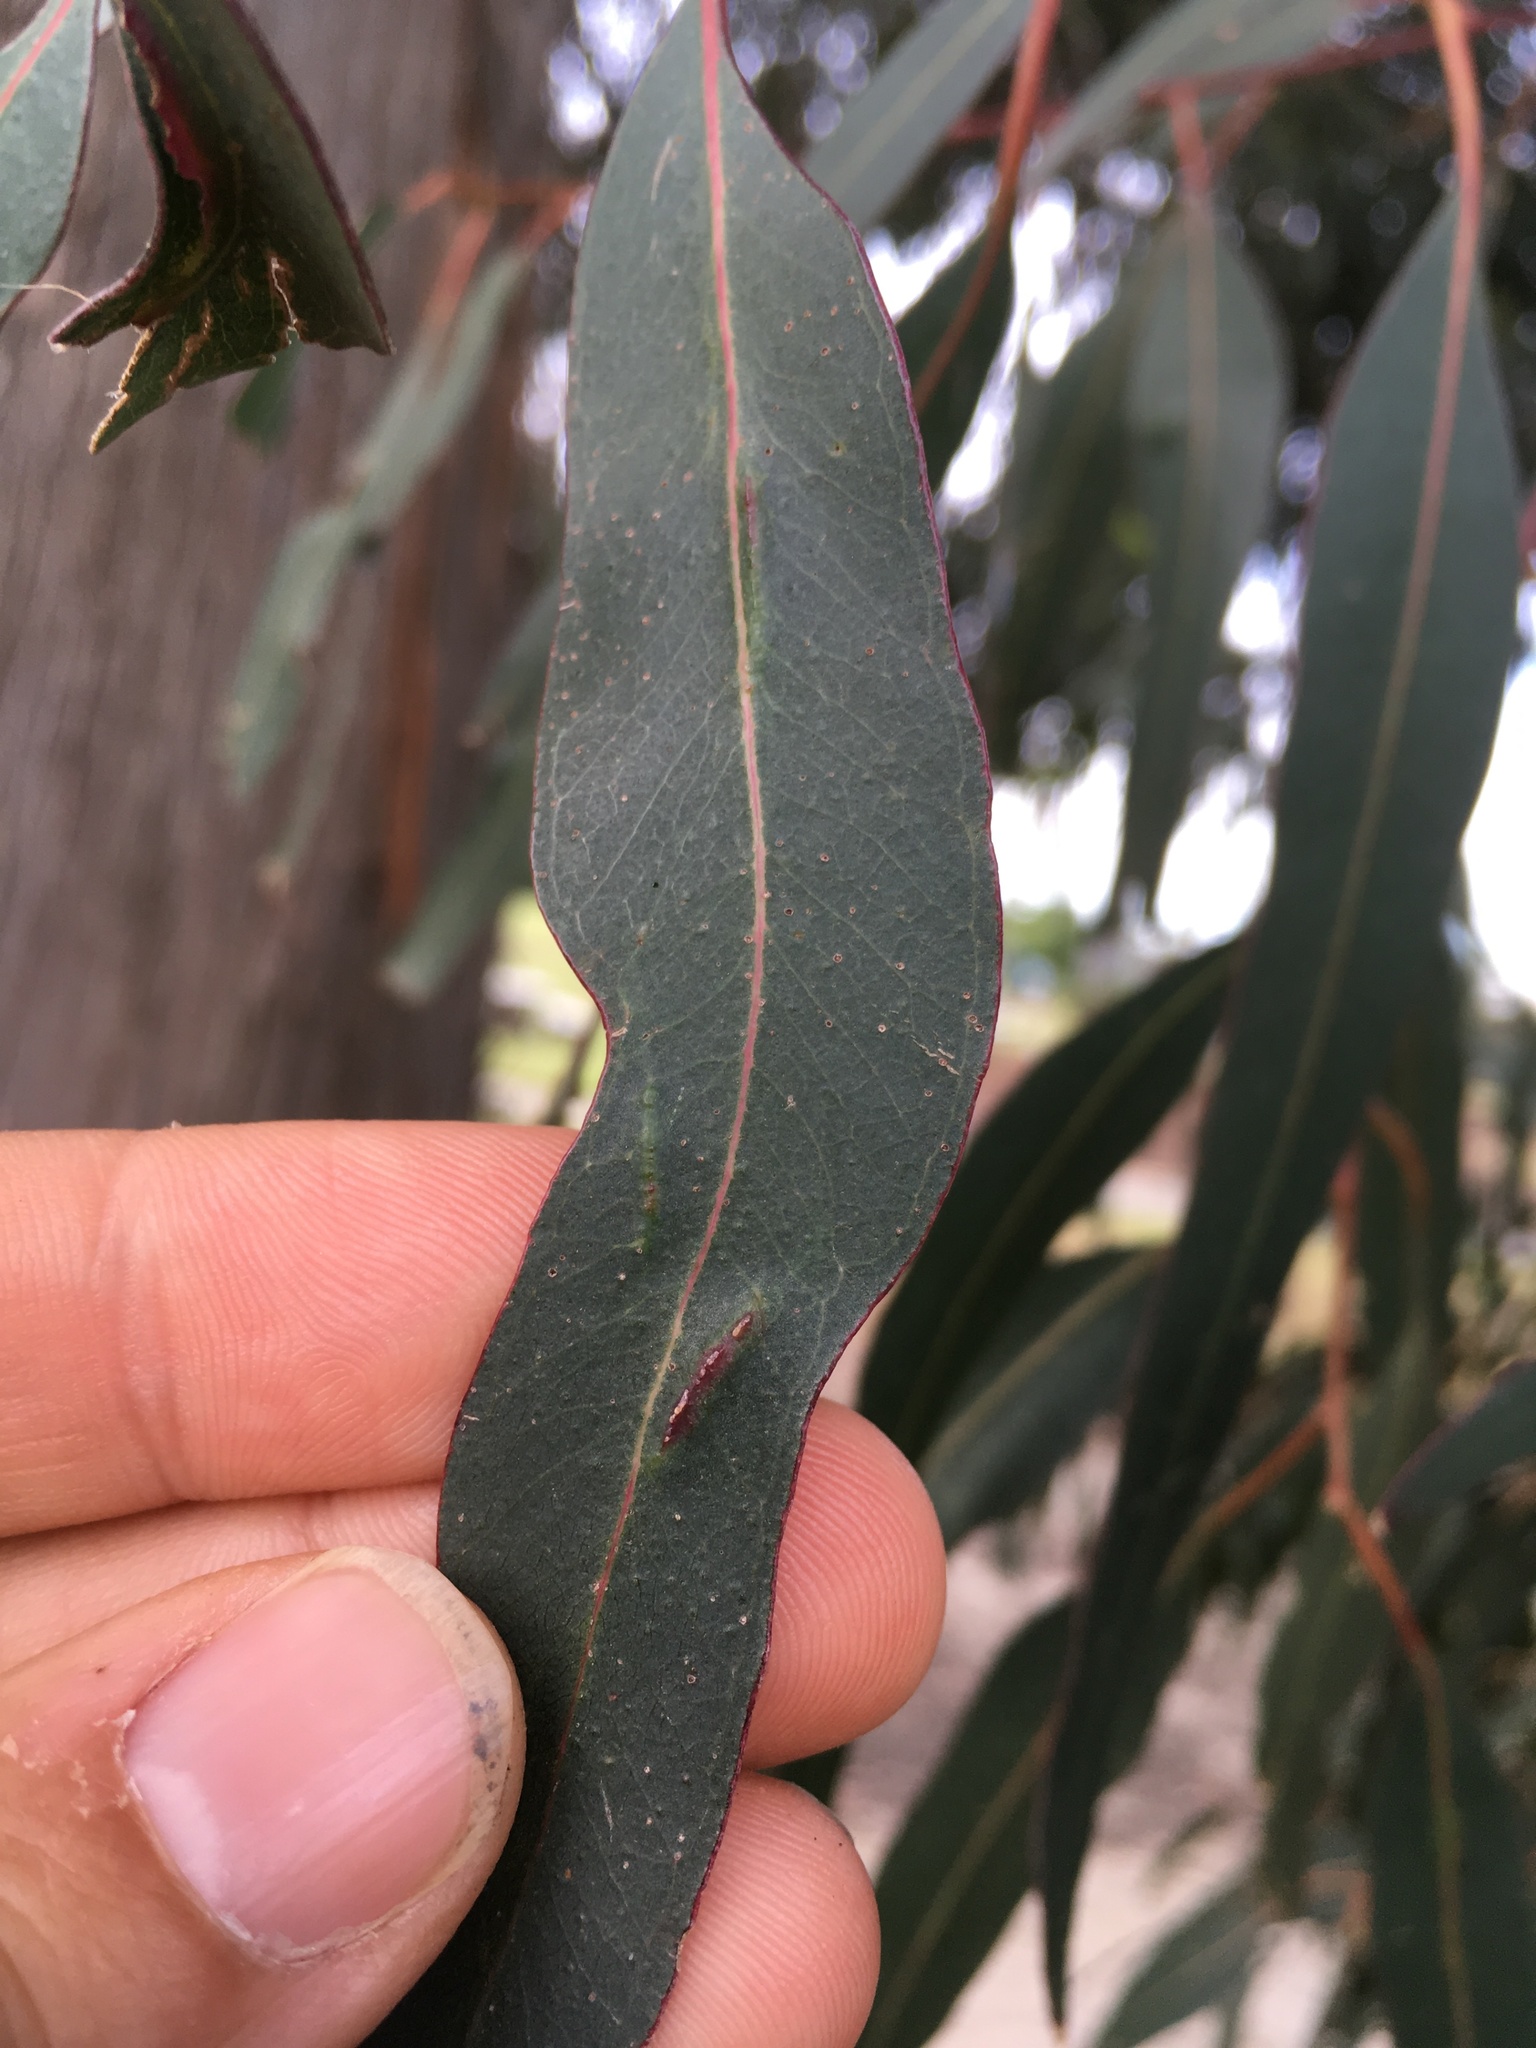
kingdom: Animalia
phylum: Arthropoda
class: Insecta
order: Hymenoptera
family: Pteromalidae
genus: Nambouria
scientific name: Nambouria xanthops
